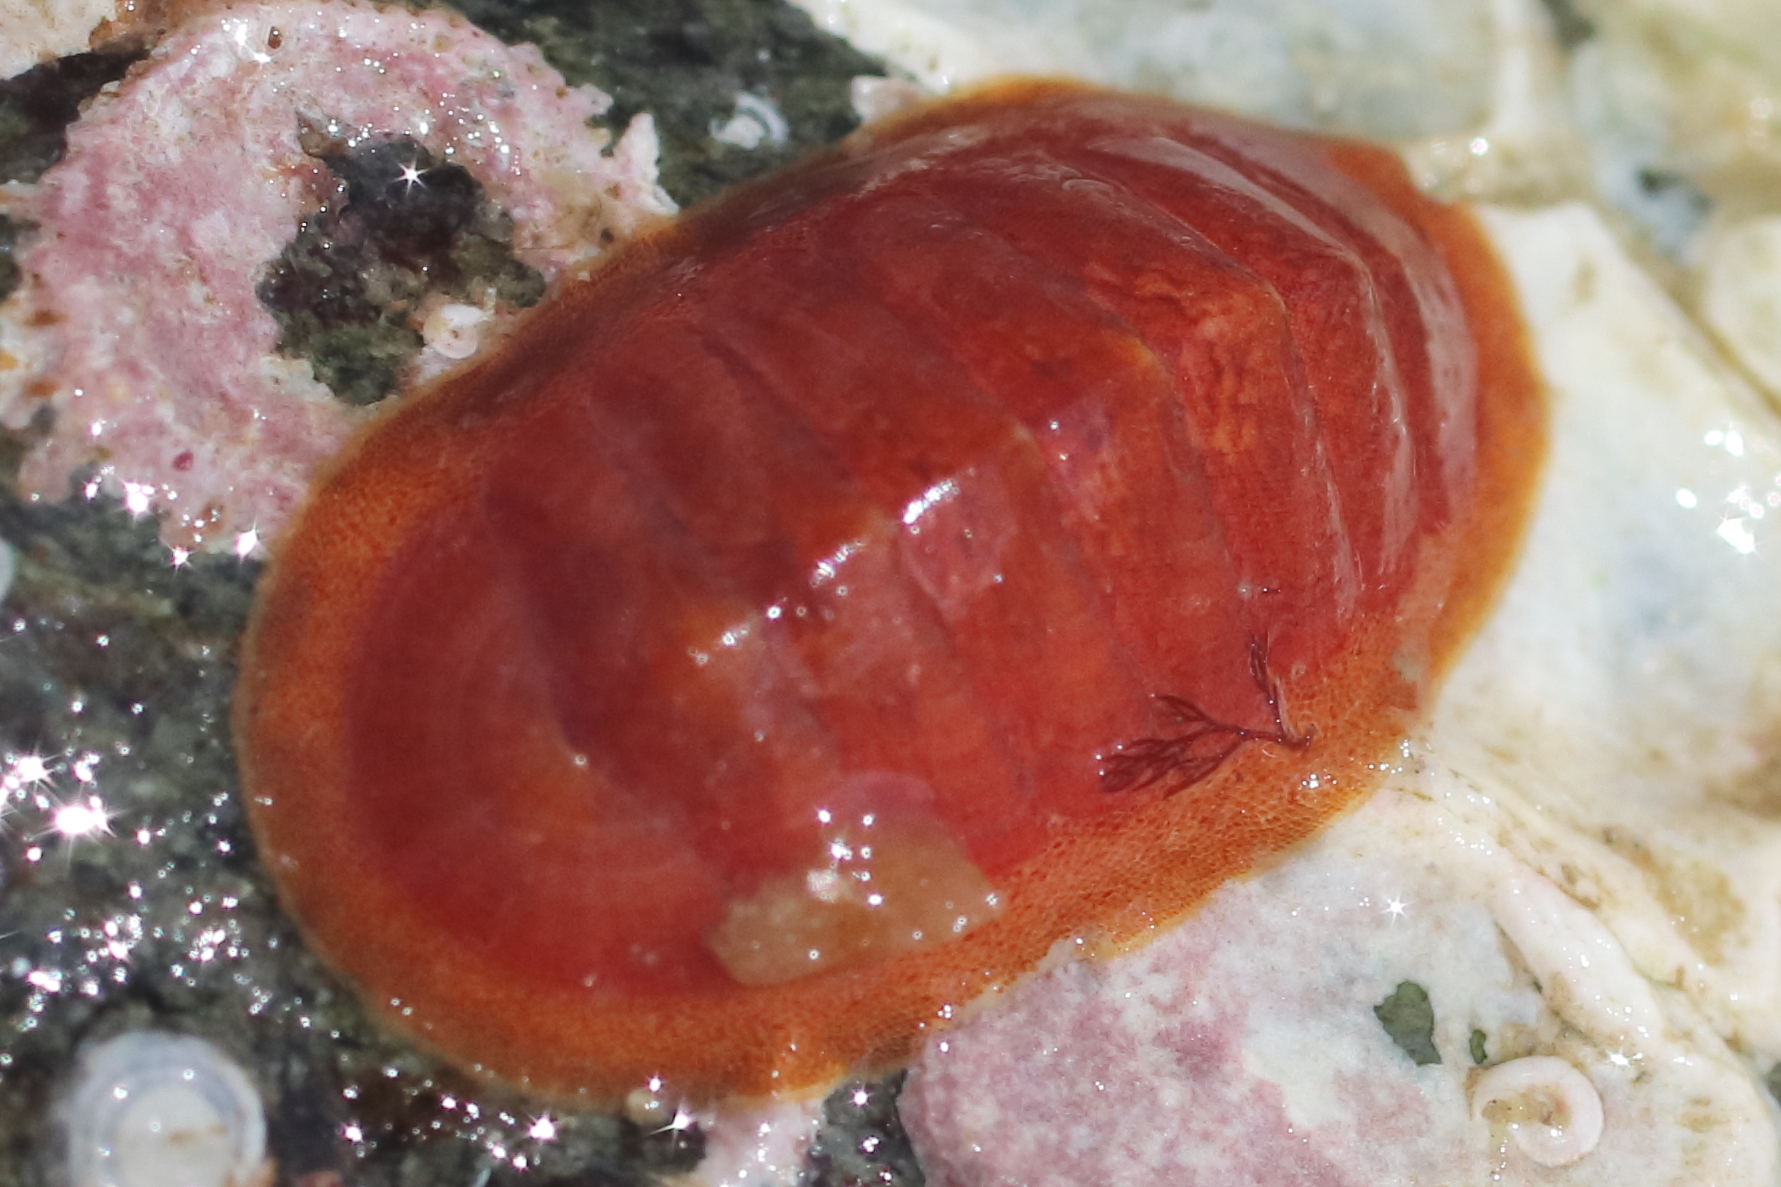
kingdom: Animalia
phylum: Mollusca
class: Polyplacophora
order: Chitonida
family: Ischnochitonidae
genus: Lepidozona
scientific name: Lepidozona interstincta
